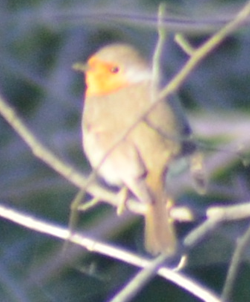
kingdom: Animalia
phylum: Chordata
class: Aves
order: Passeriformes
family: Muscicapidae
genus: Erithacus
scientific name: Erithacus rubecula
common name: European robin
